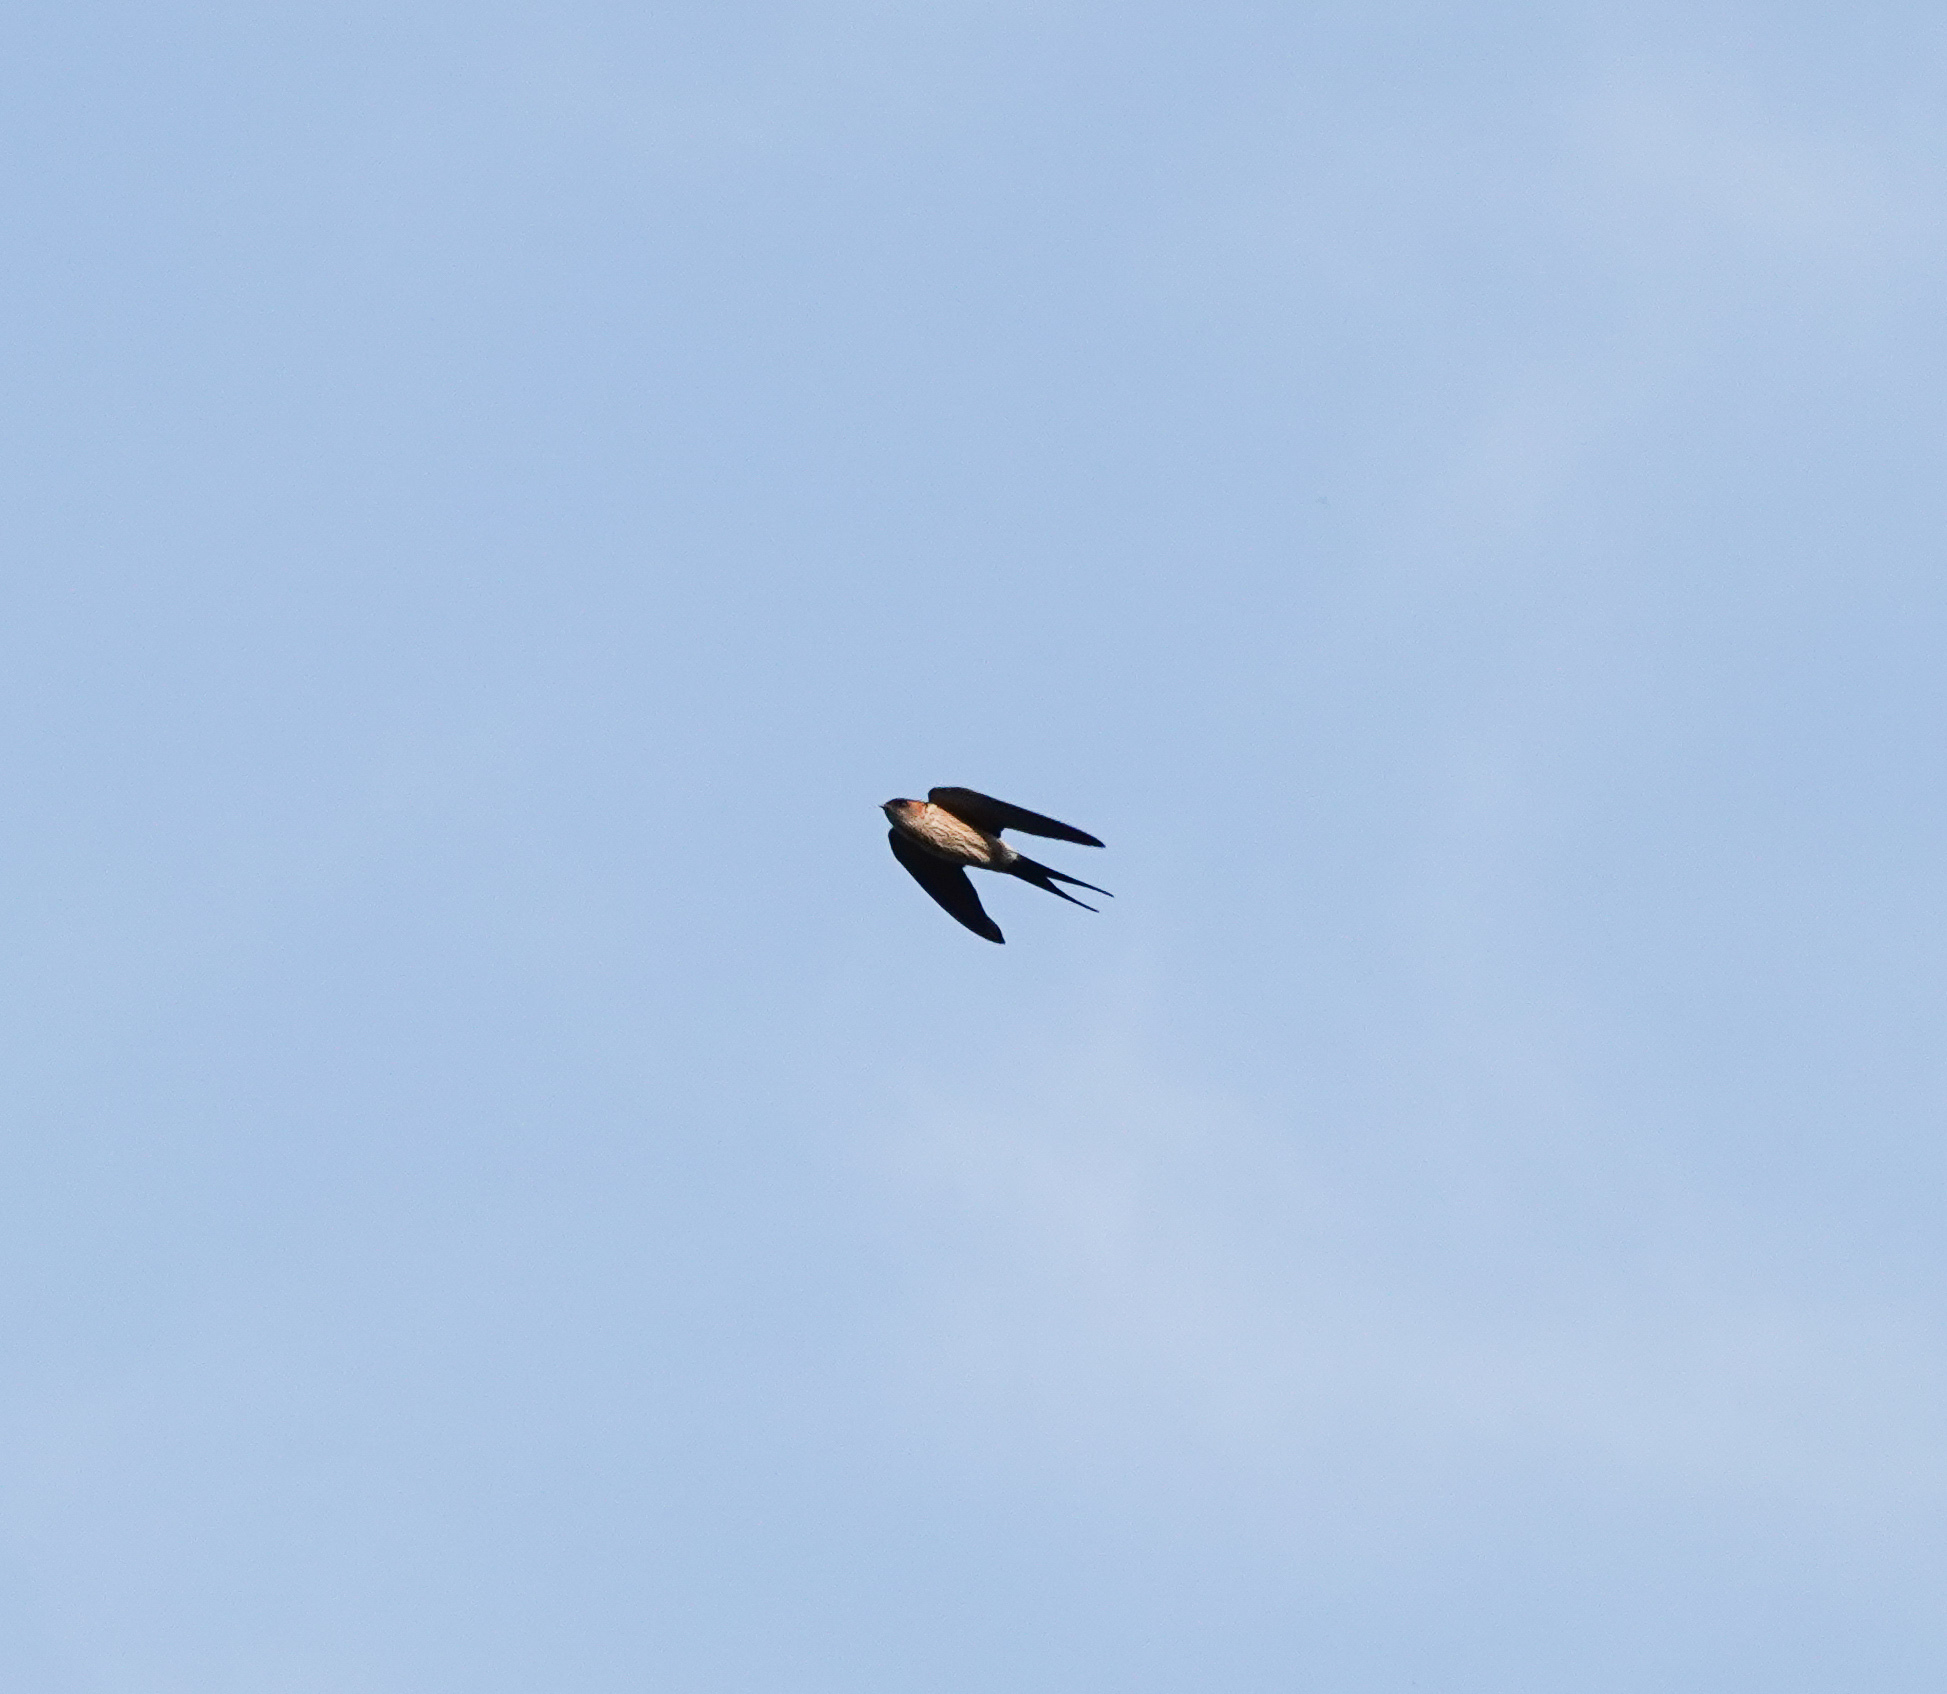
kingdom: Animalia
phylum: Chordata
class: Aves
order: Passeriformes
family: Hirundinidae
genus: Cecropis
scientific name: Cecropis daurica
